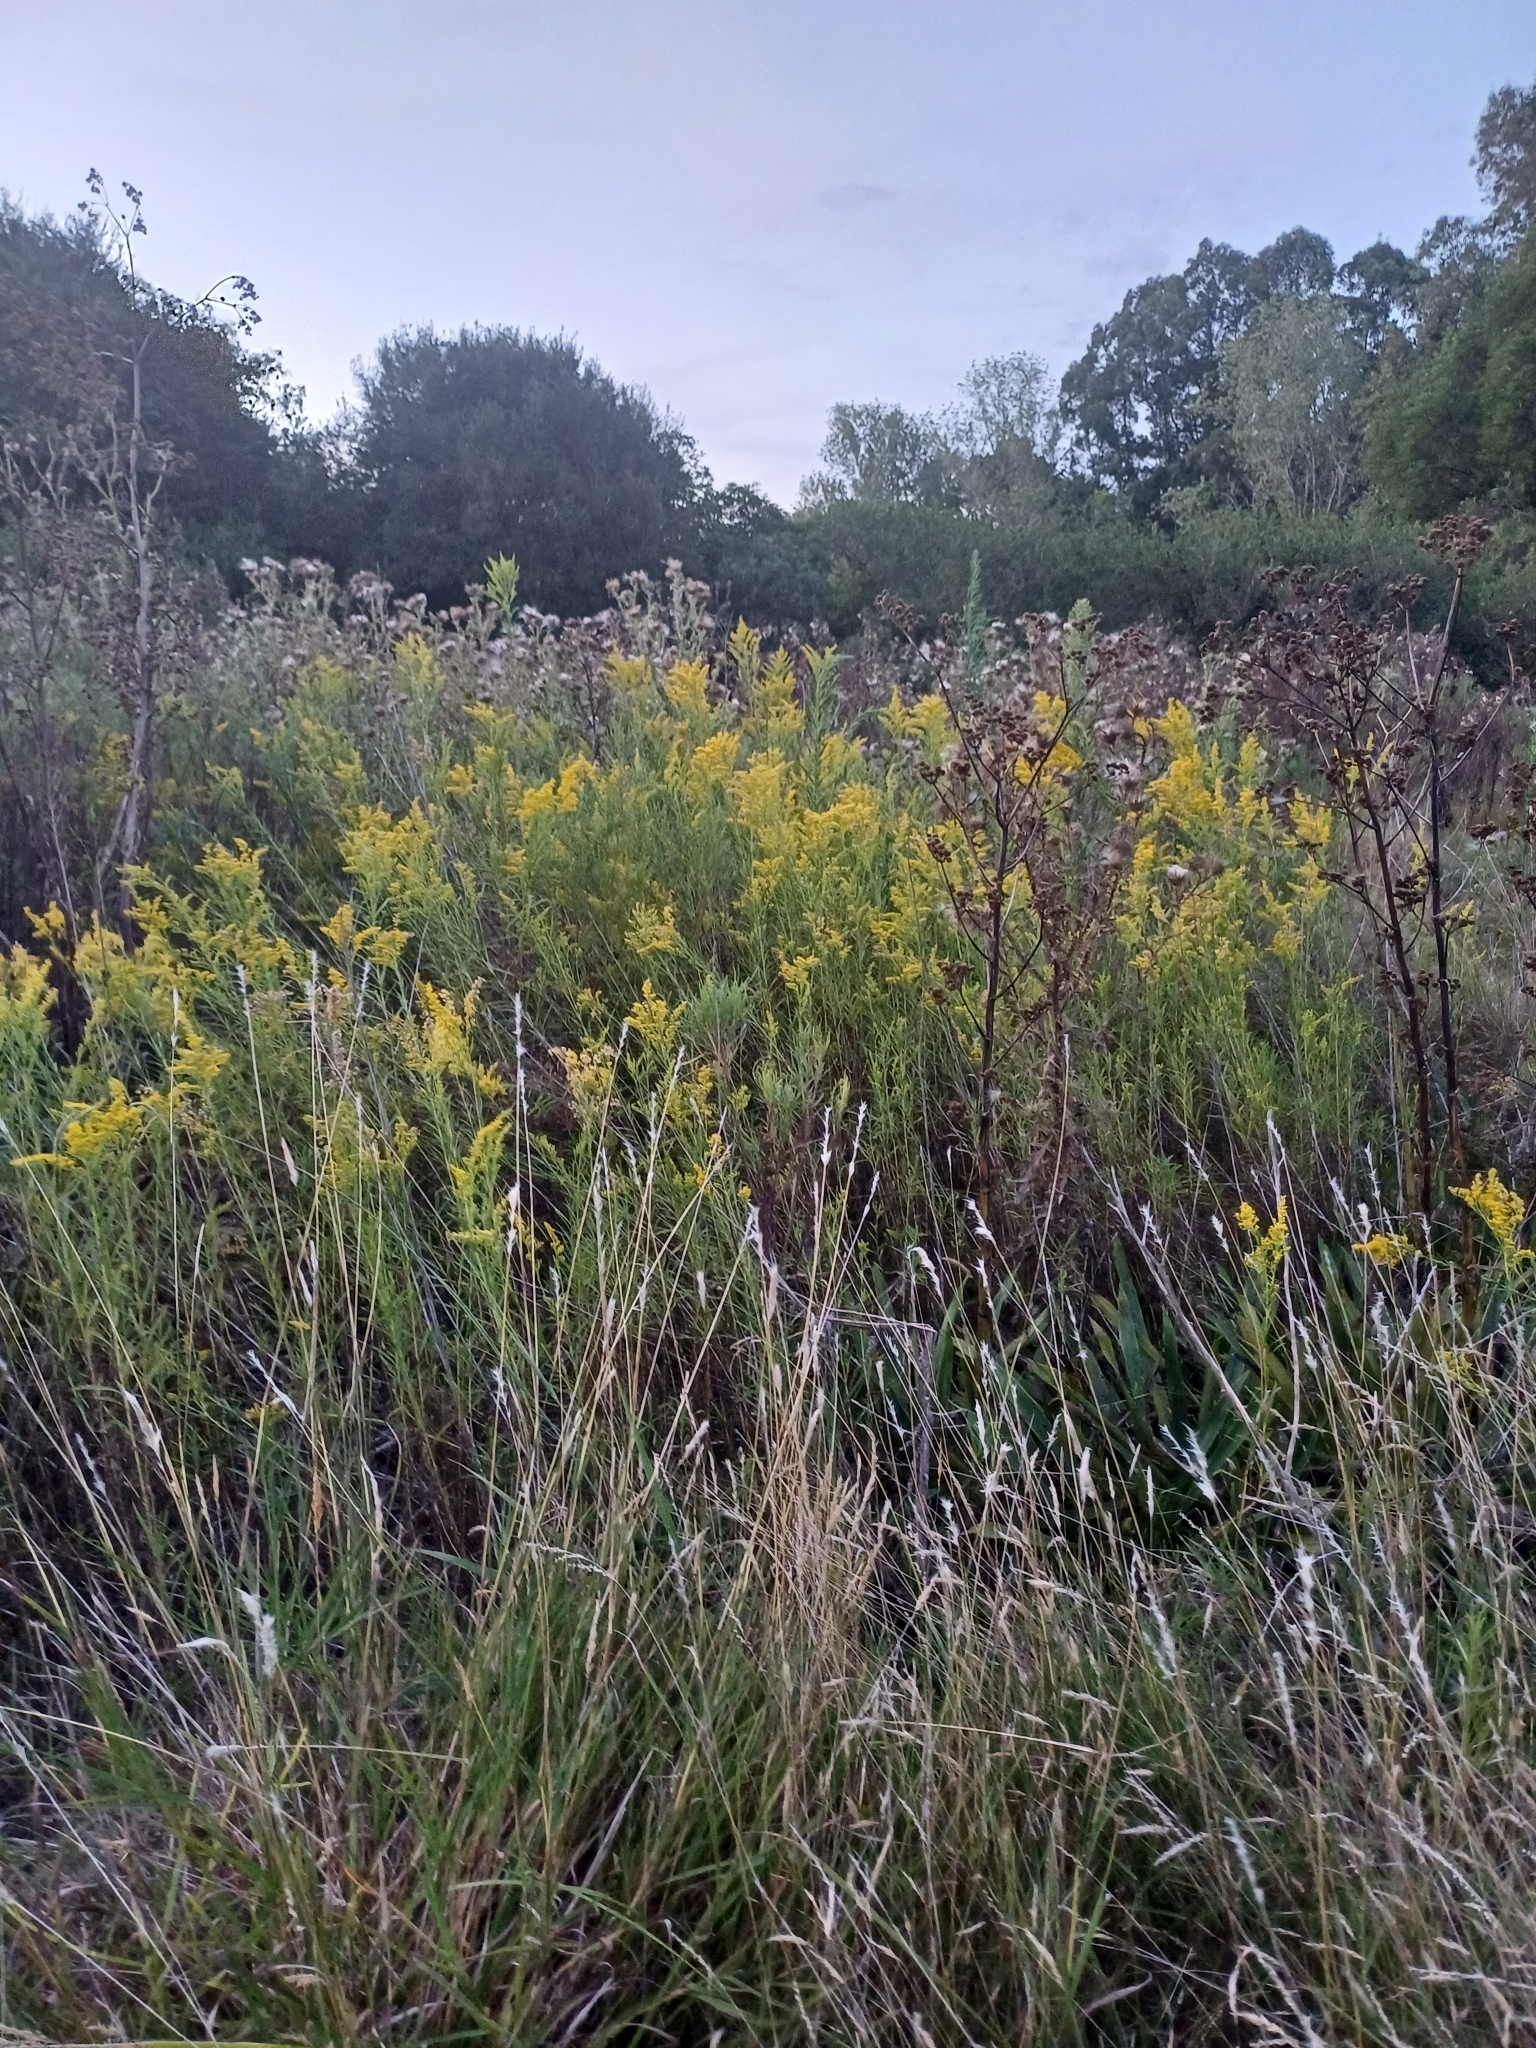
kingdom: Plantae
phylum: Tracheophyta
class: Magnoliopsida
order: Asterales
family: Asteraceae
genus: Solidago
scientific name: Solidago chilensis
